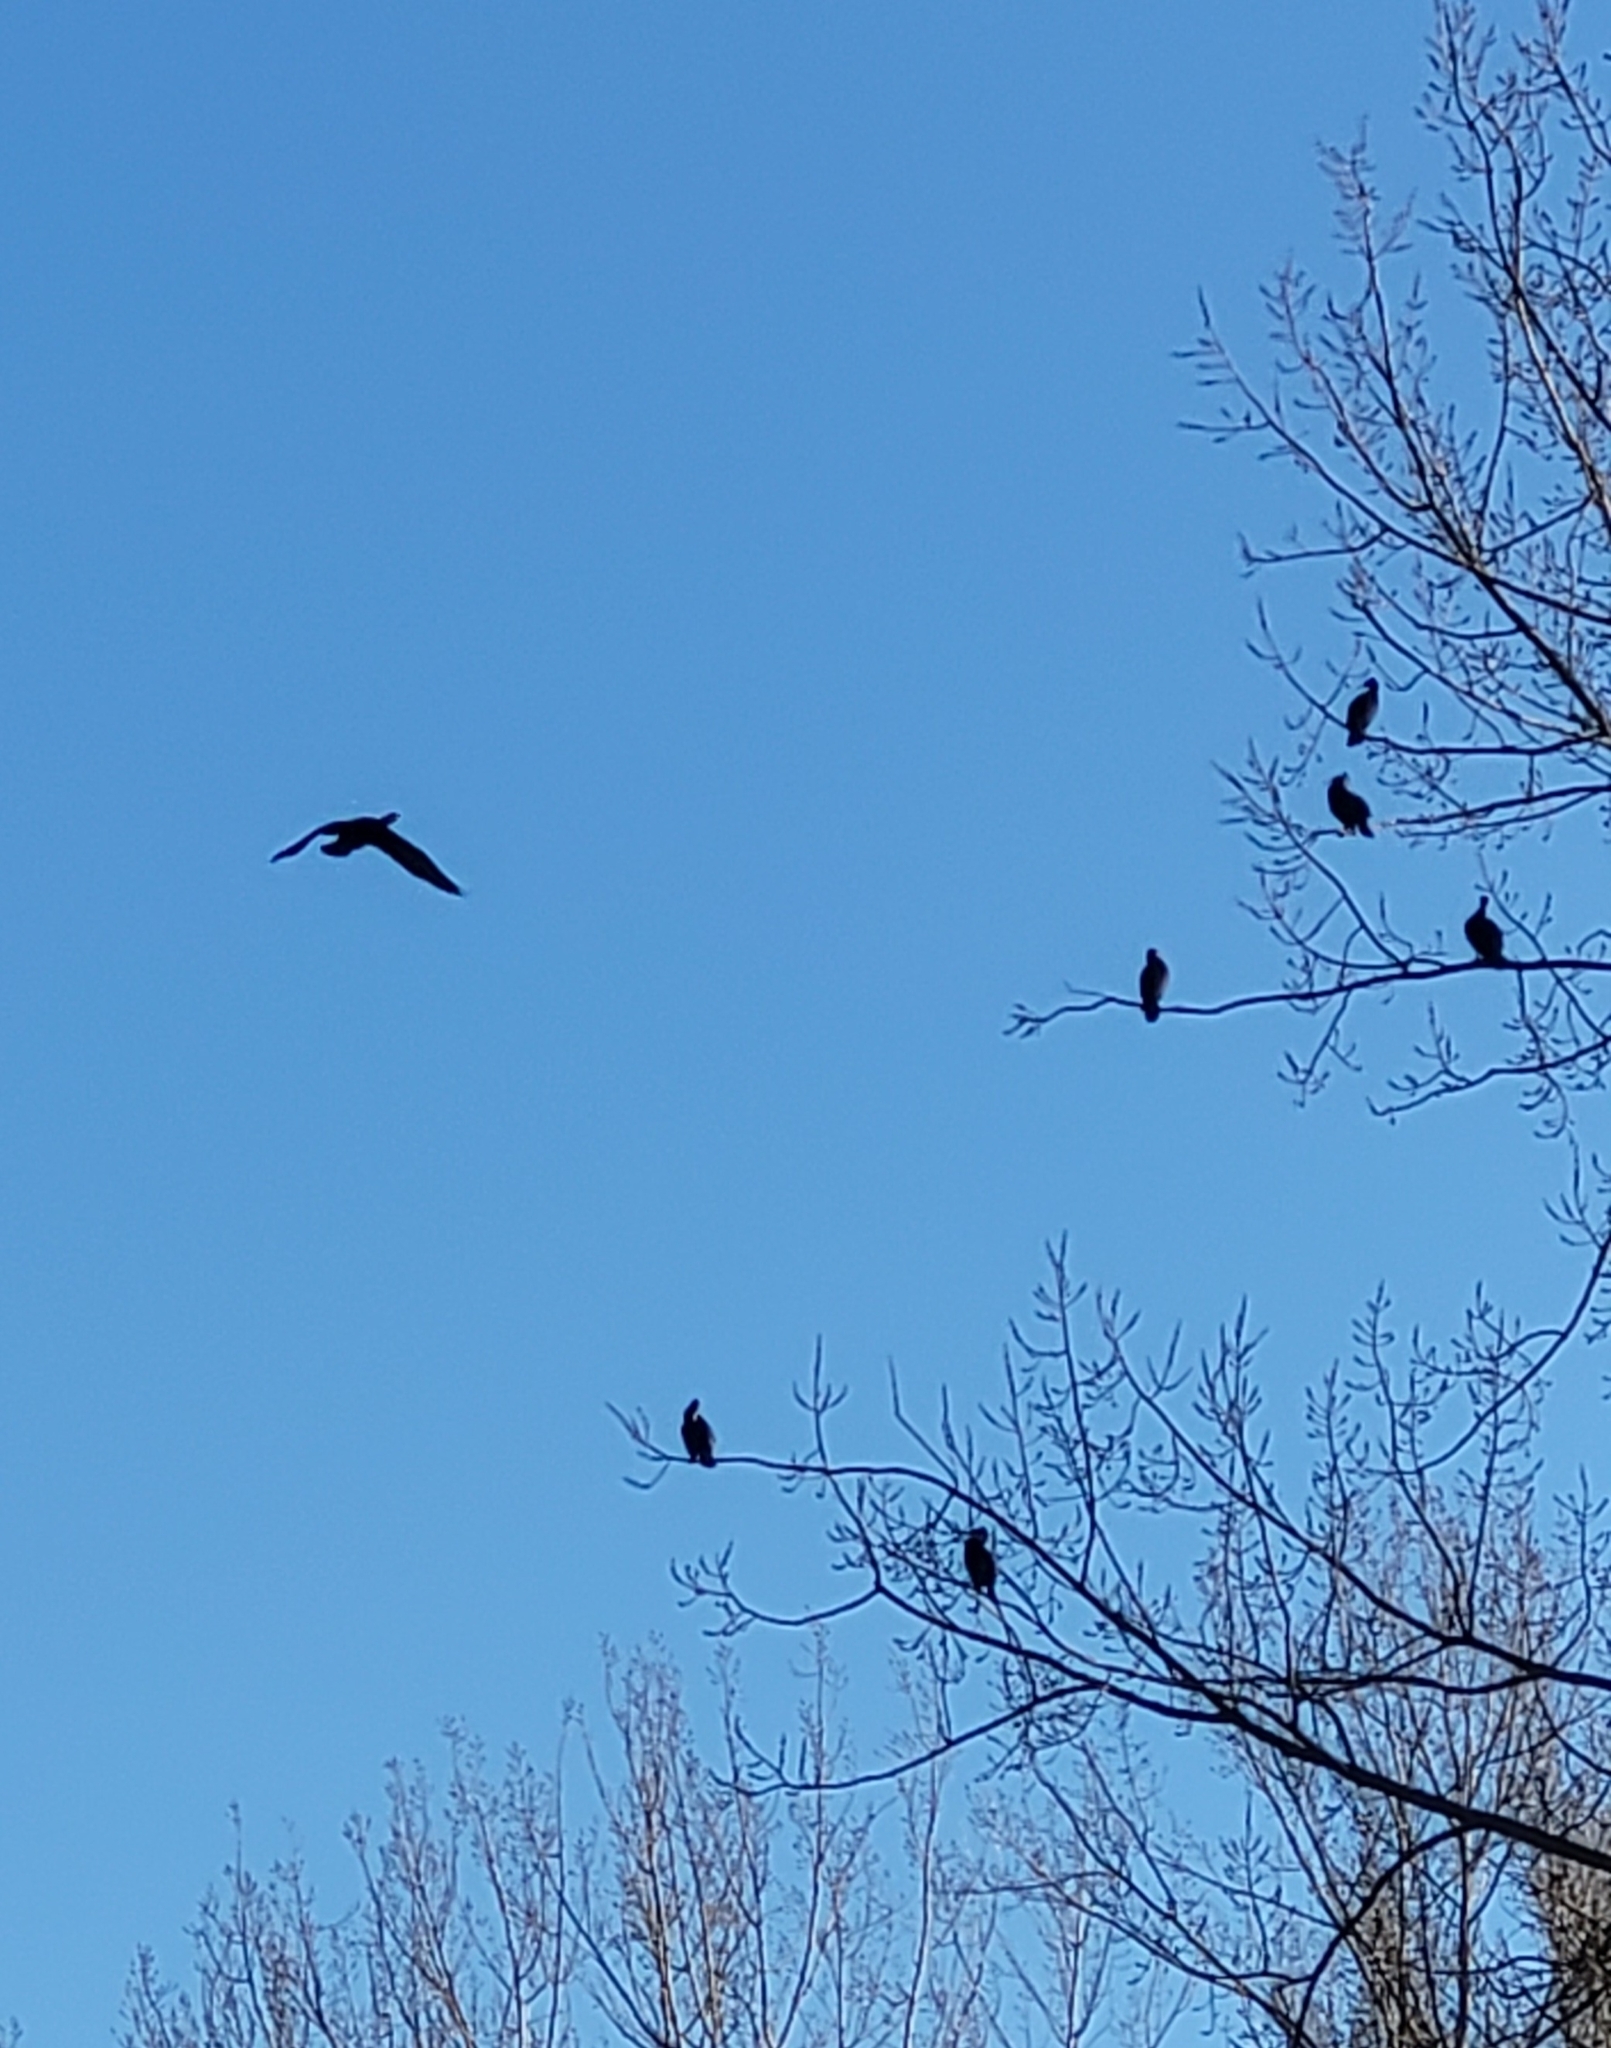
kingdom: Animalia
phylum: Chordata
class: Aves
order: Suliformes
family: Phalacrocoracidae
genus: Phalacrocorax
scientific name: Phalacrocorax carbo
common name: Great cormorant
